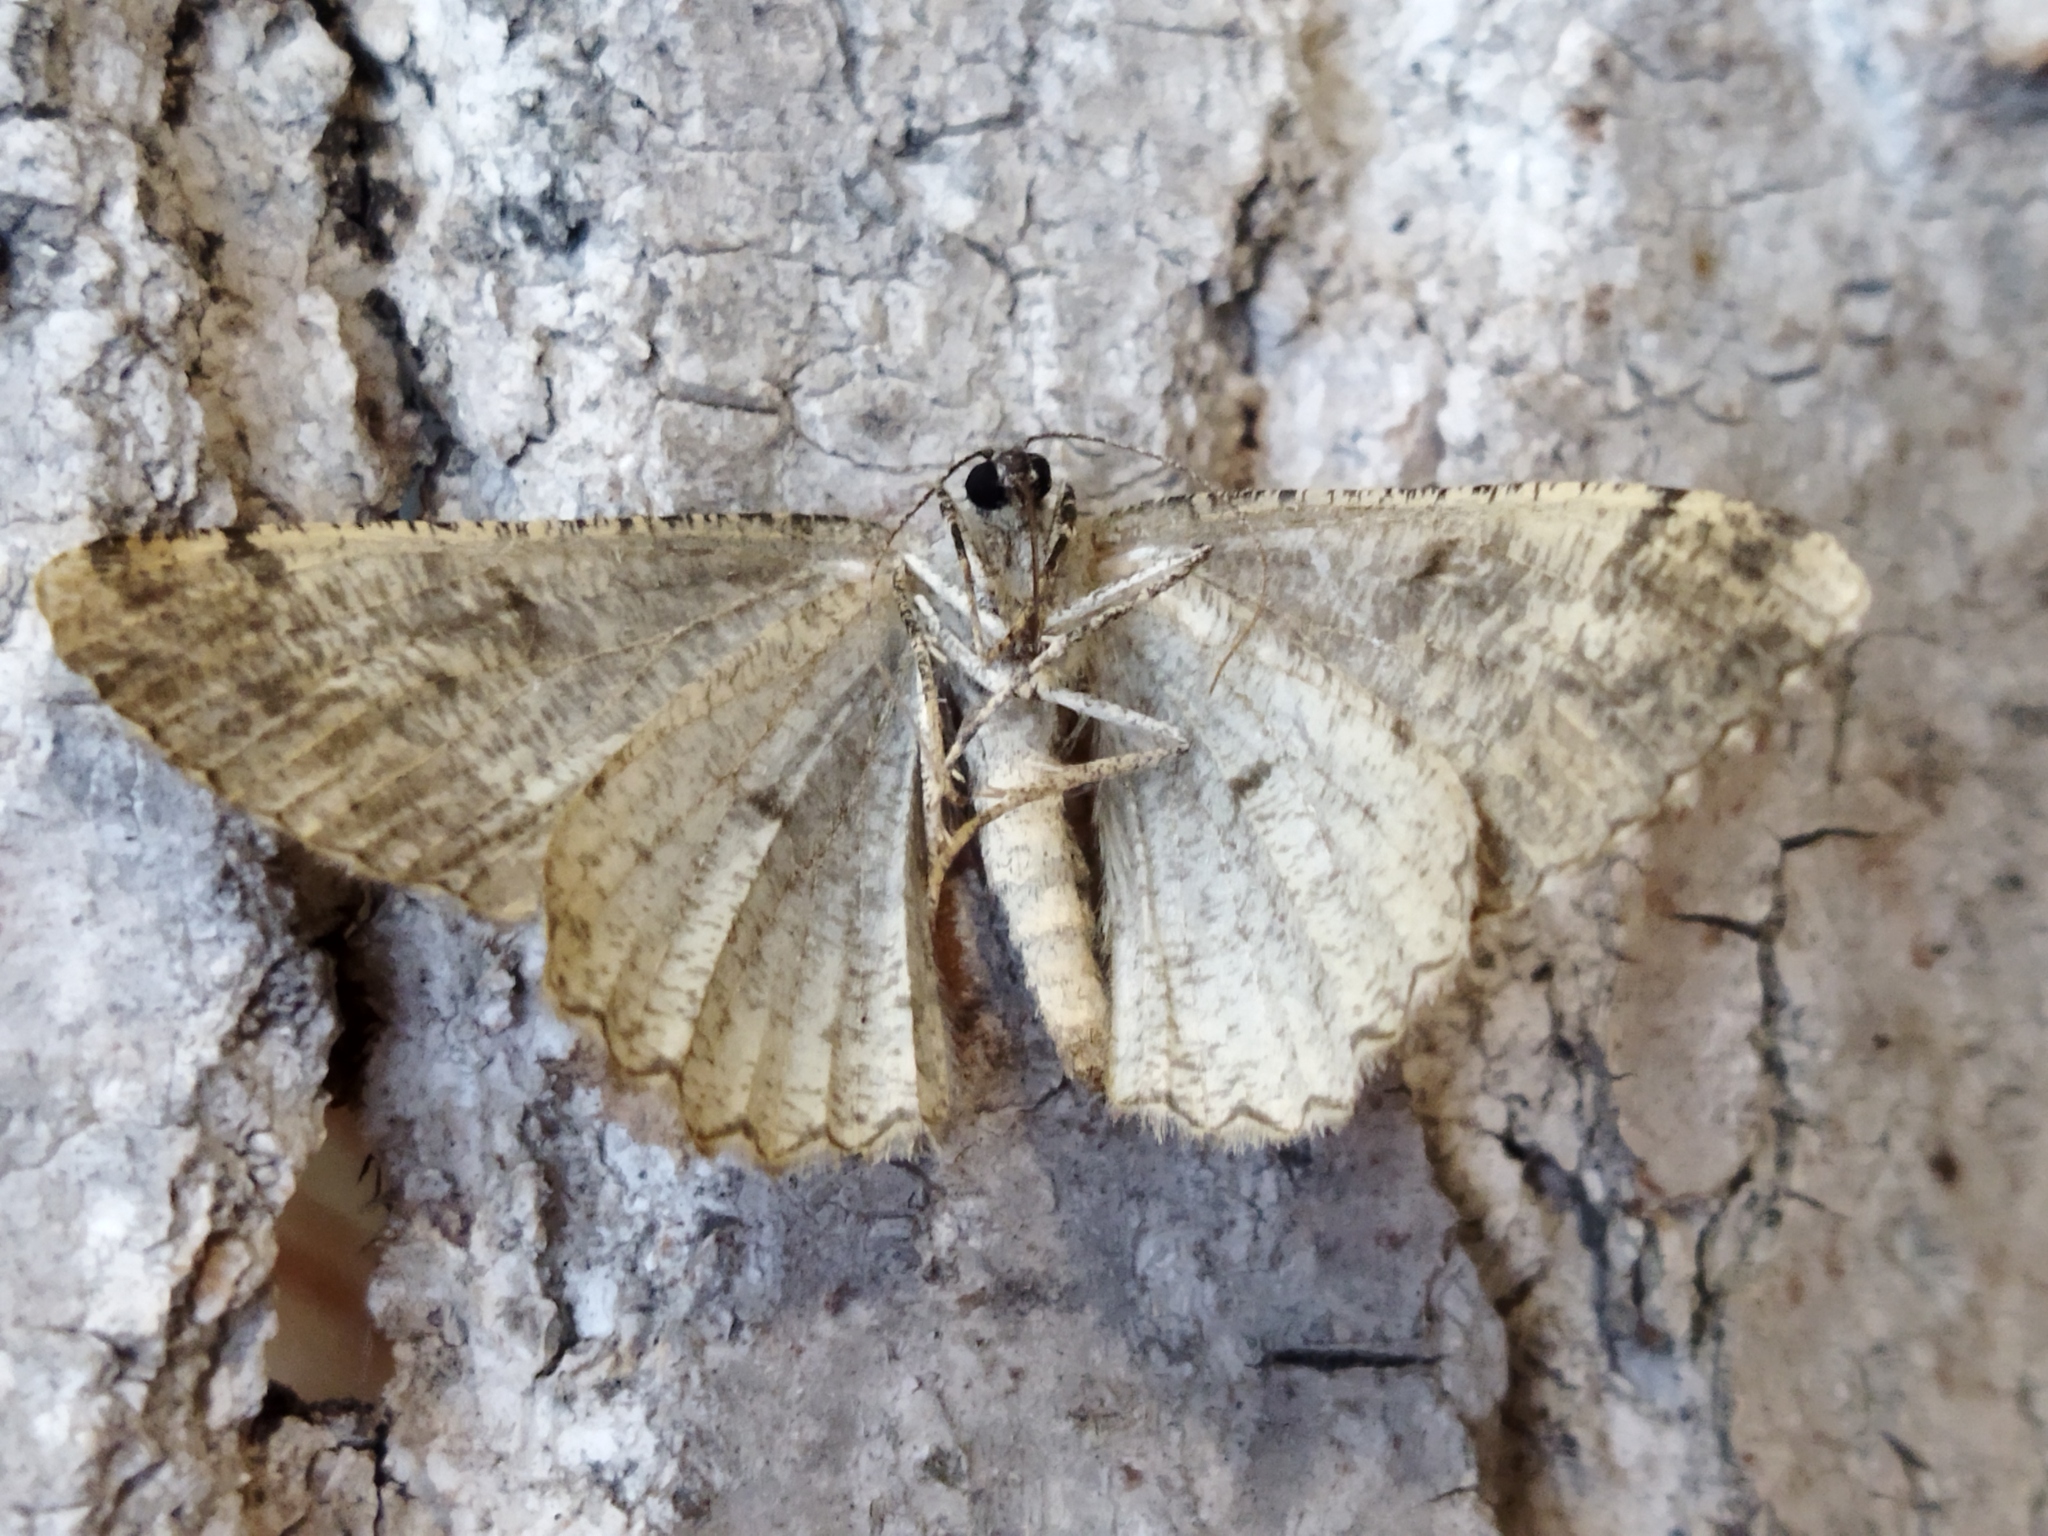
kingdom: Animalia
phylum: Arthropoda
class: Insecta
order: Lepidoptera
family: Geometridae
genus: Alcis
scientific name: Alcis repandata
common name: Mottled beauty
